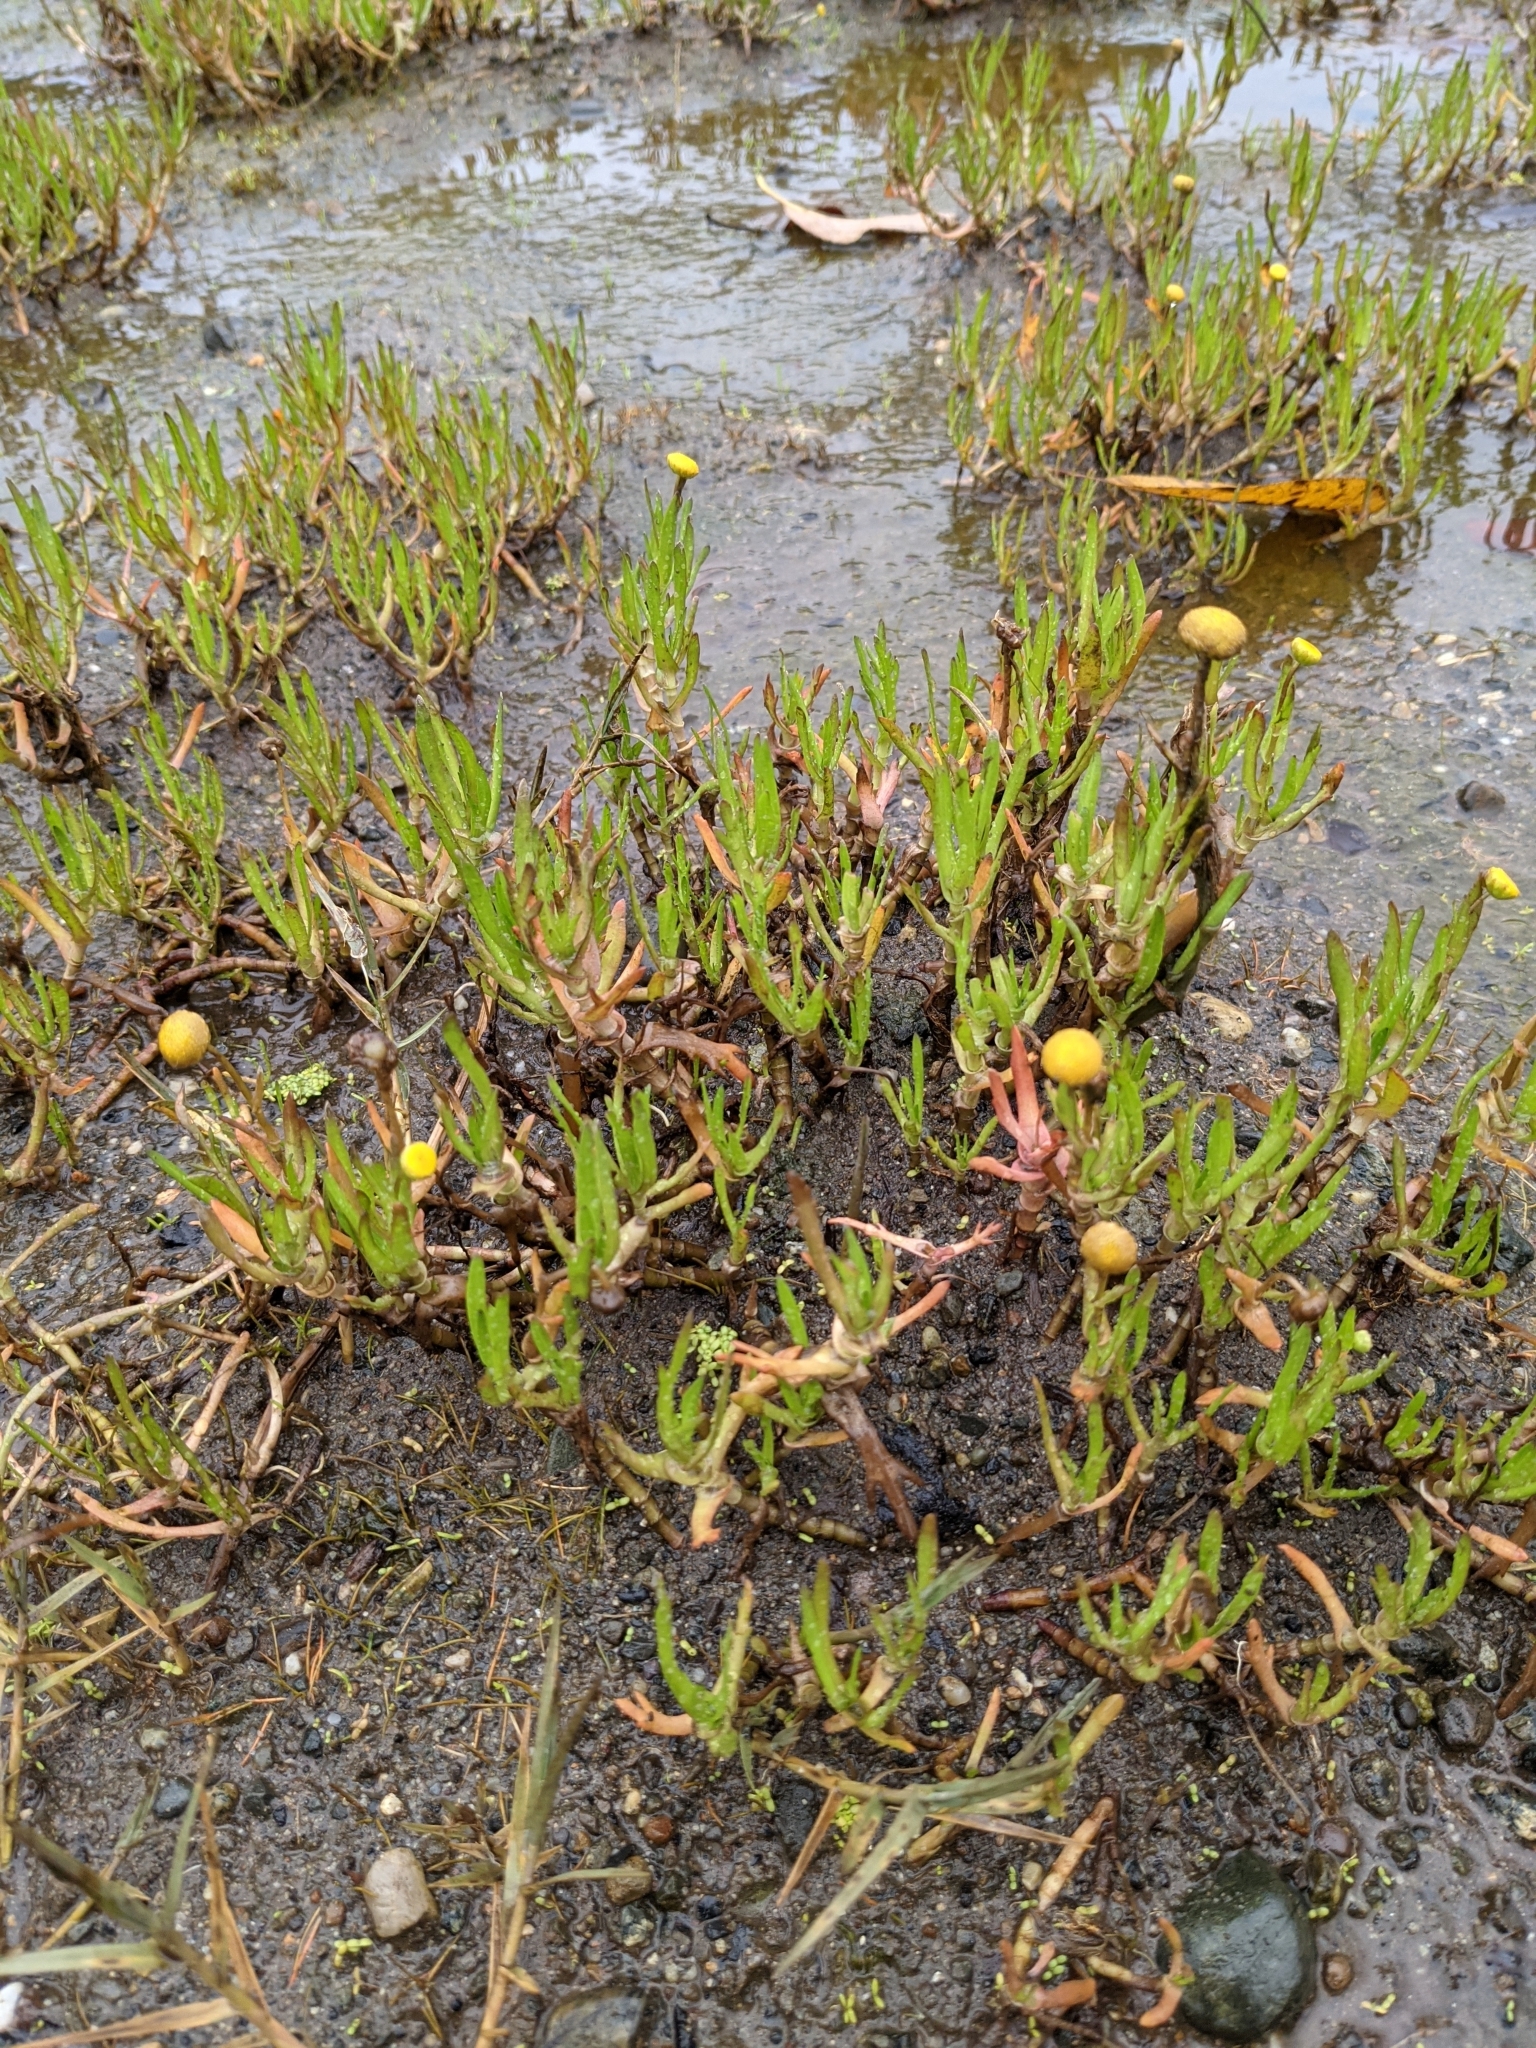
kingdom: Plantae
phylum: Tracheophyta
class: Magnoliopsida
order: Asterales
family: Asteraceae
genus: Cotula
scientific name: Cotula coronopifolia
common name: Buttonweed
